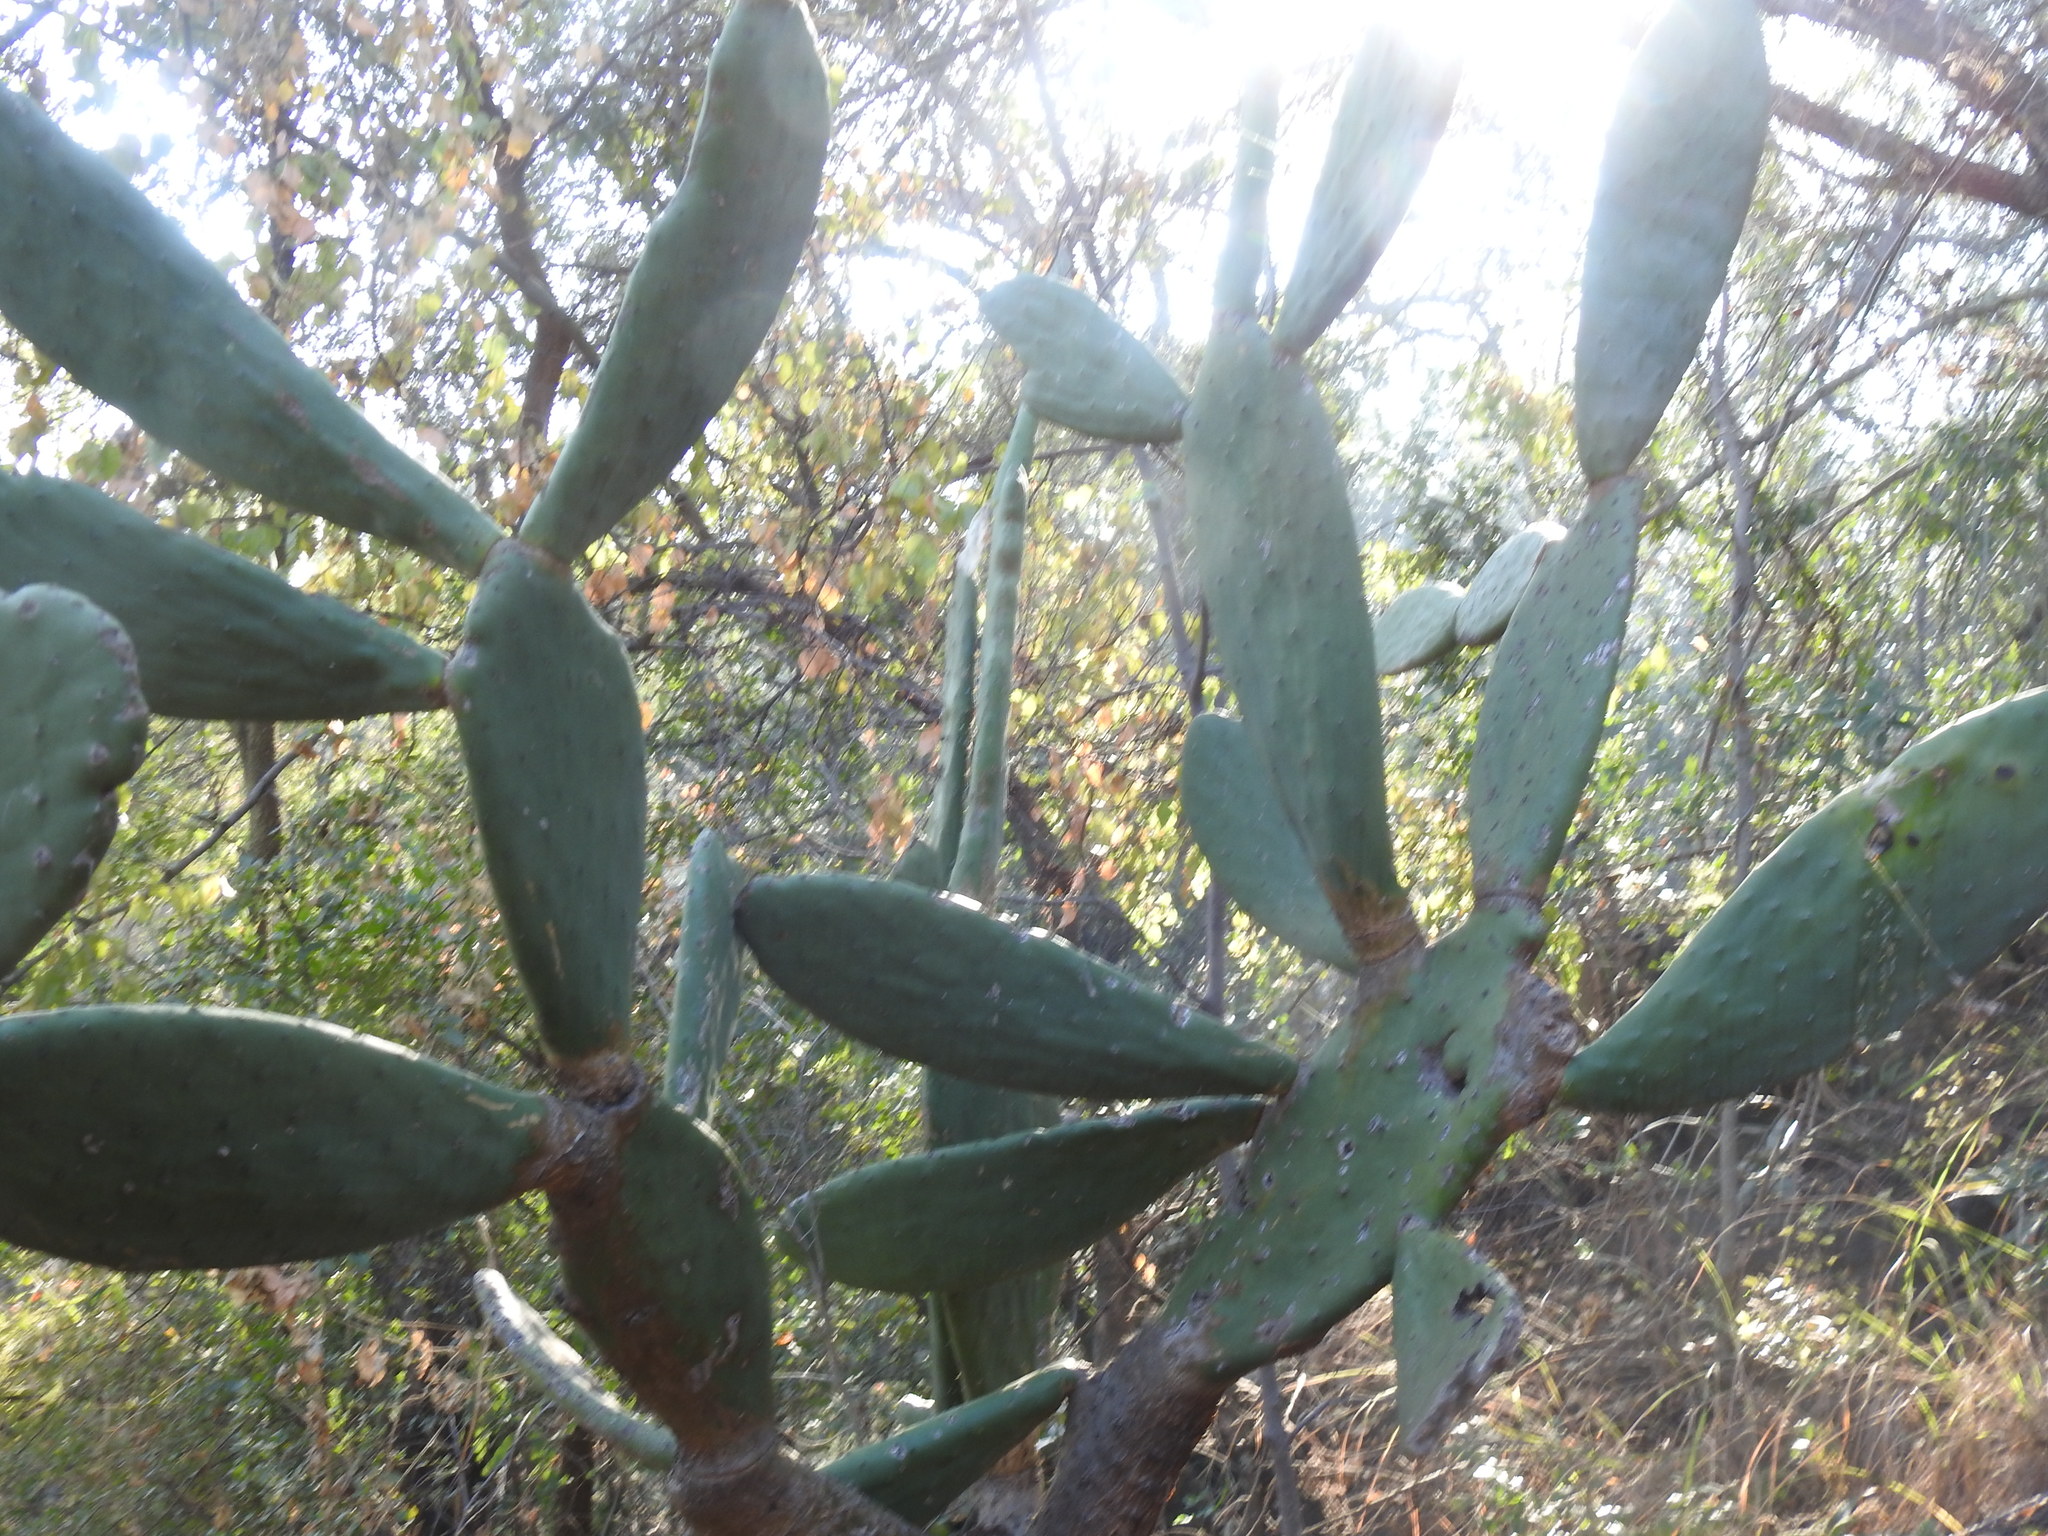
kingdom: Plantae
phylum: Tracheophyta
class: Magnoliopsida
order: Caryophyllales
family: Cactaceae
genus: Opuntia
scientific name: Opuntia ficus-indica
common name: Barbary fig
